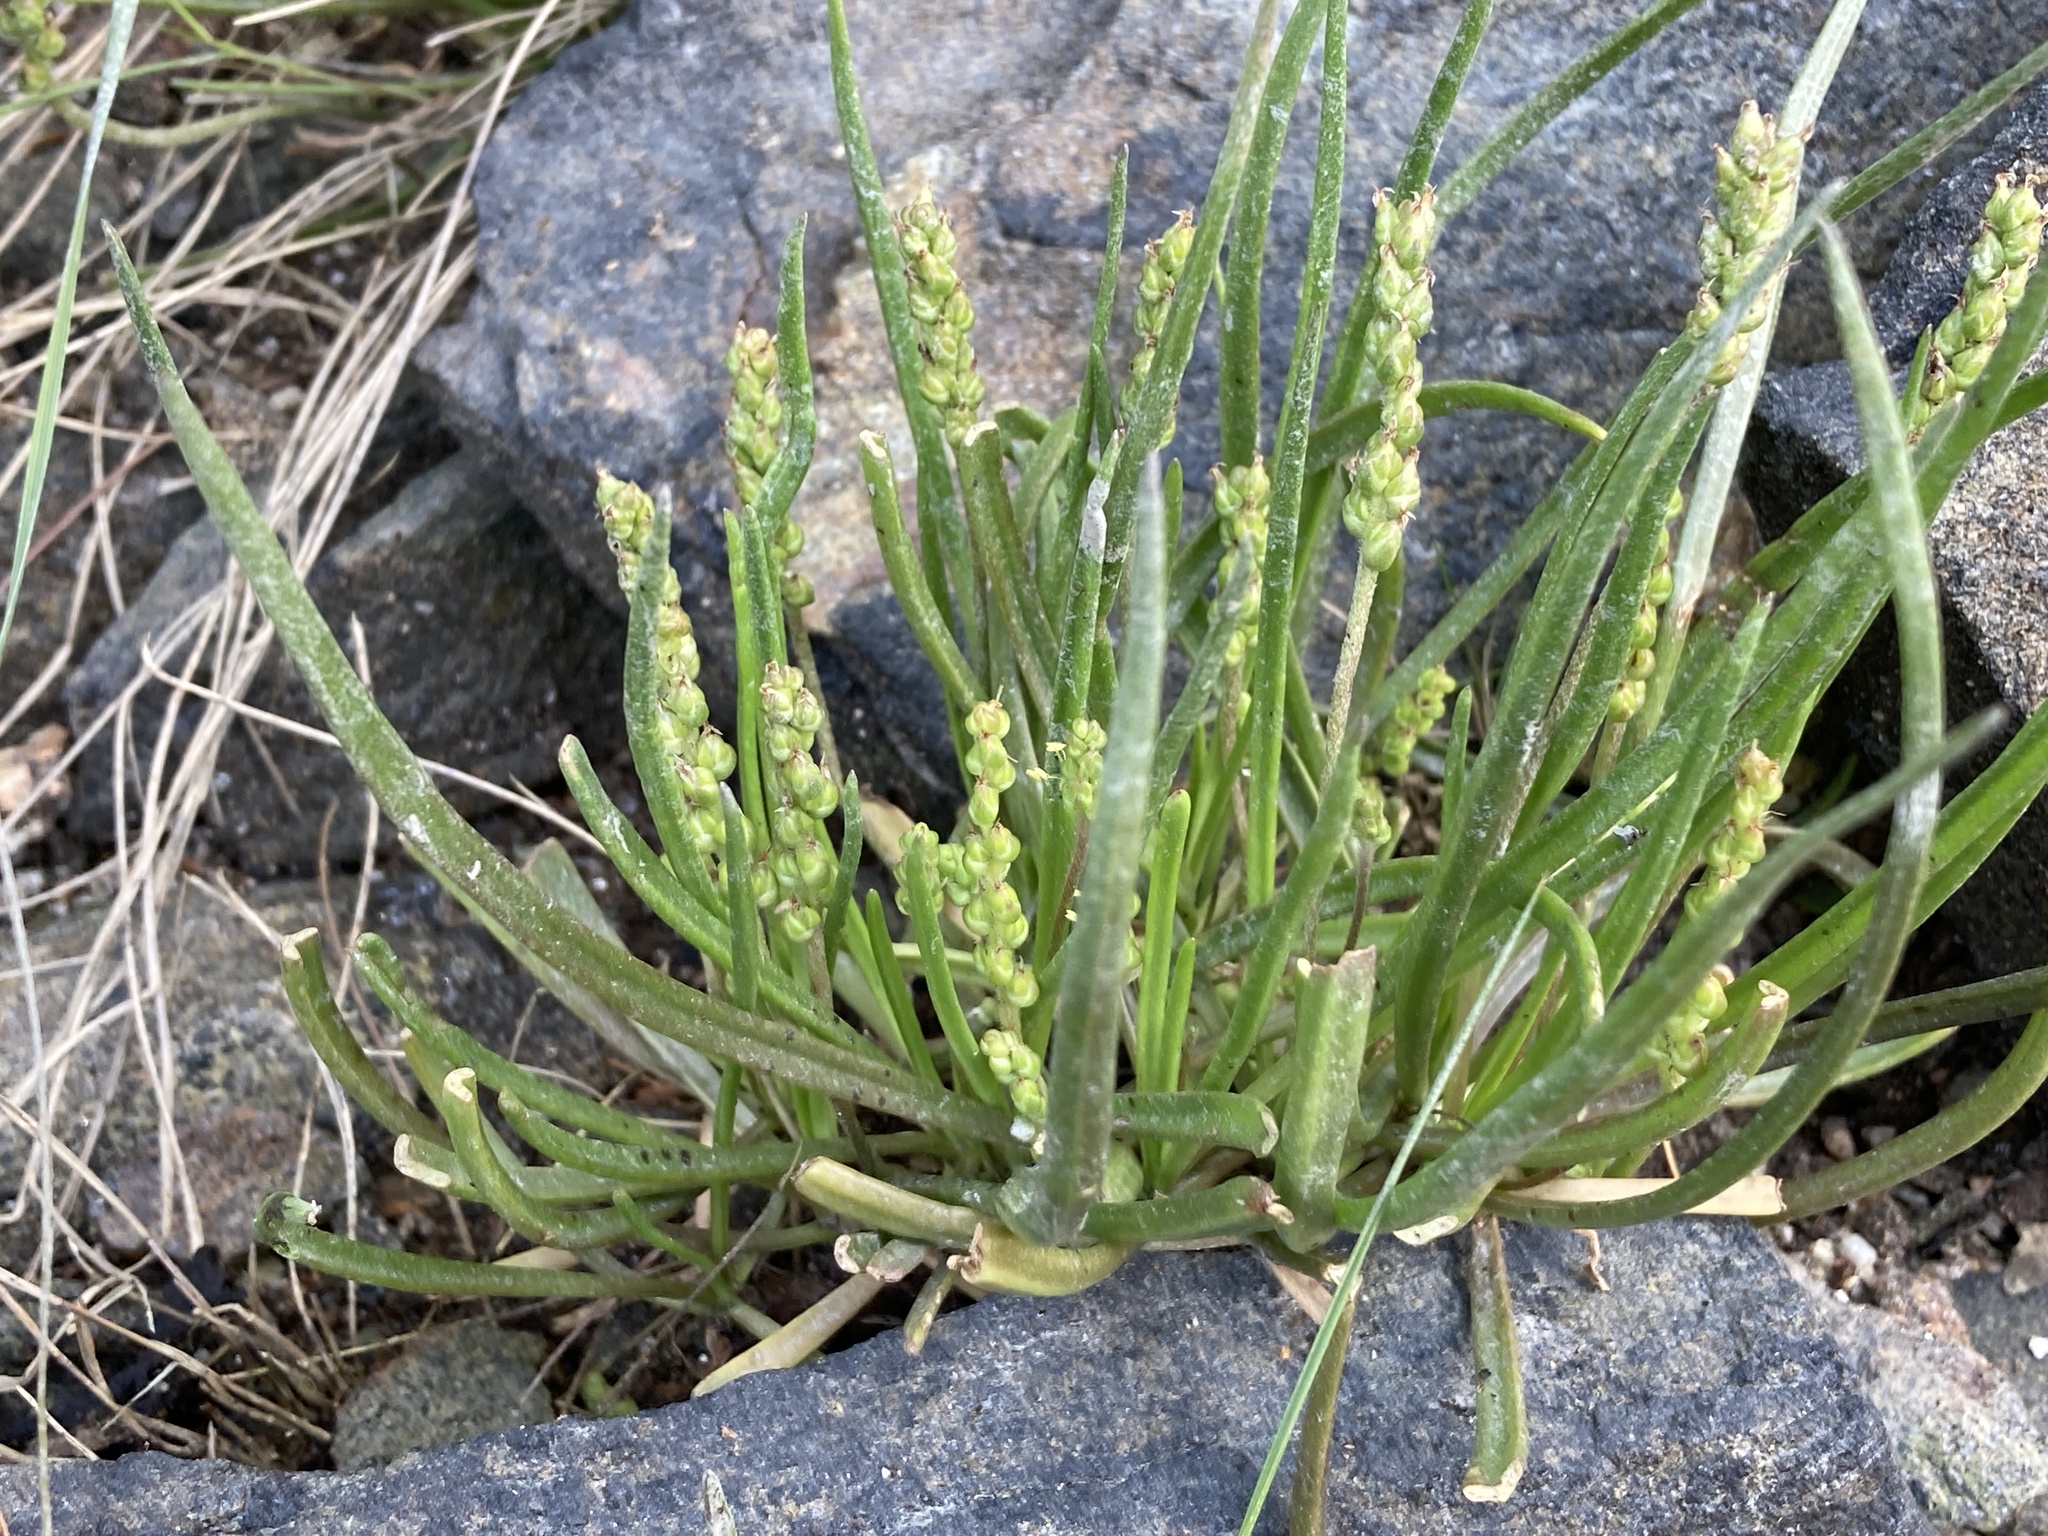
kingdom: Plantae
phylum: Tracheophyta
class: Magnoliopsida
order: Lamiales
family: Plantaginaceae
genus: Plantago
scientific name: Plantago maritima
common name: Sea plantain
